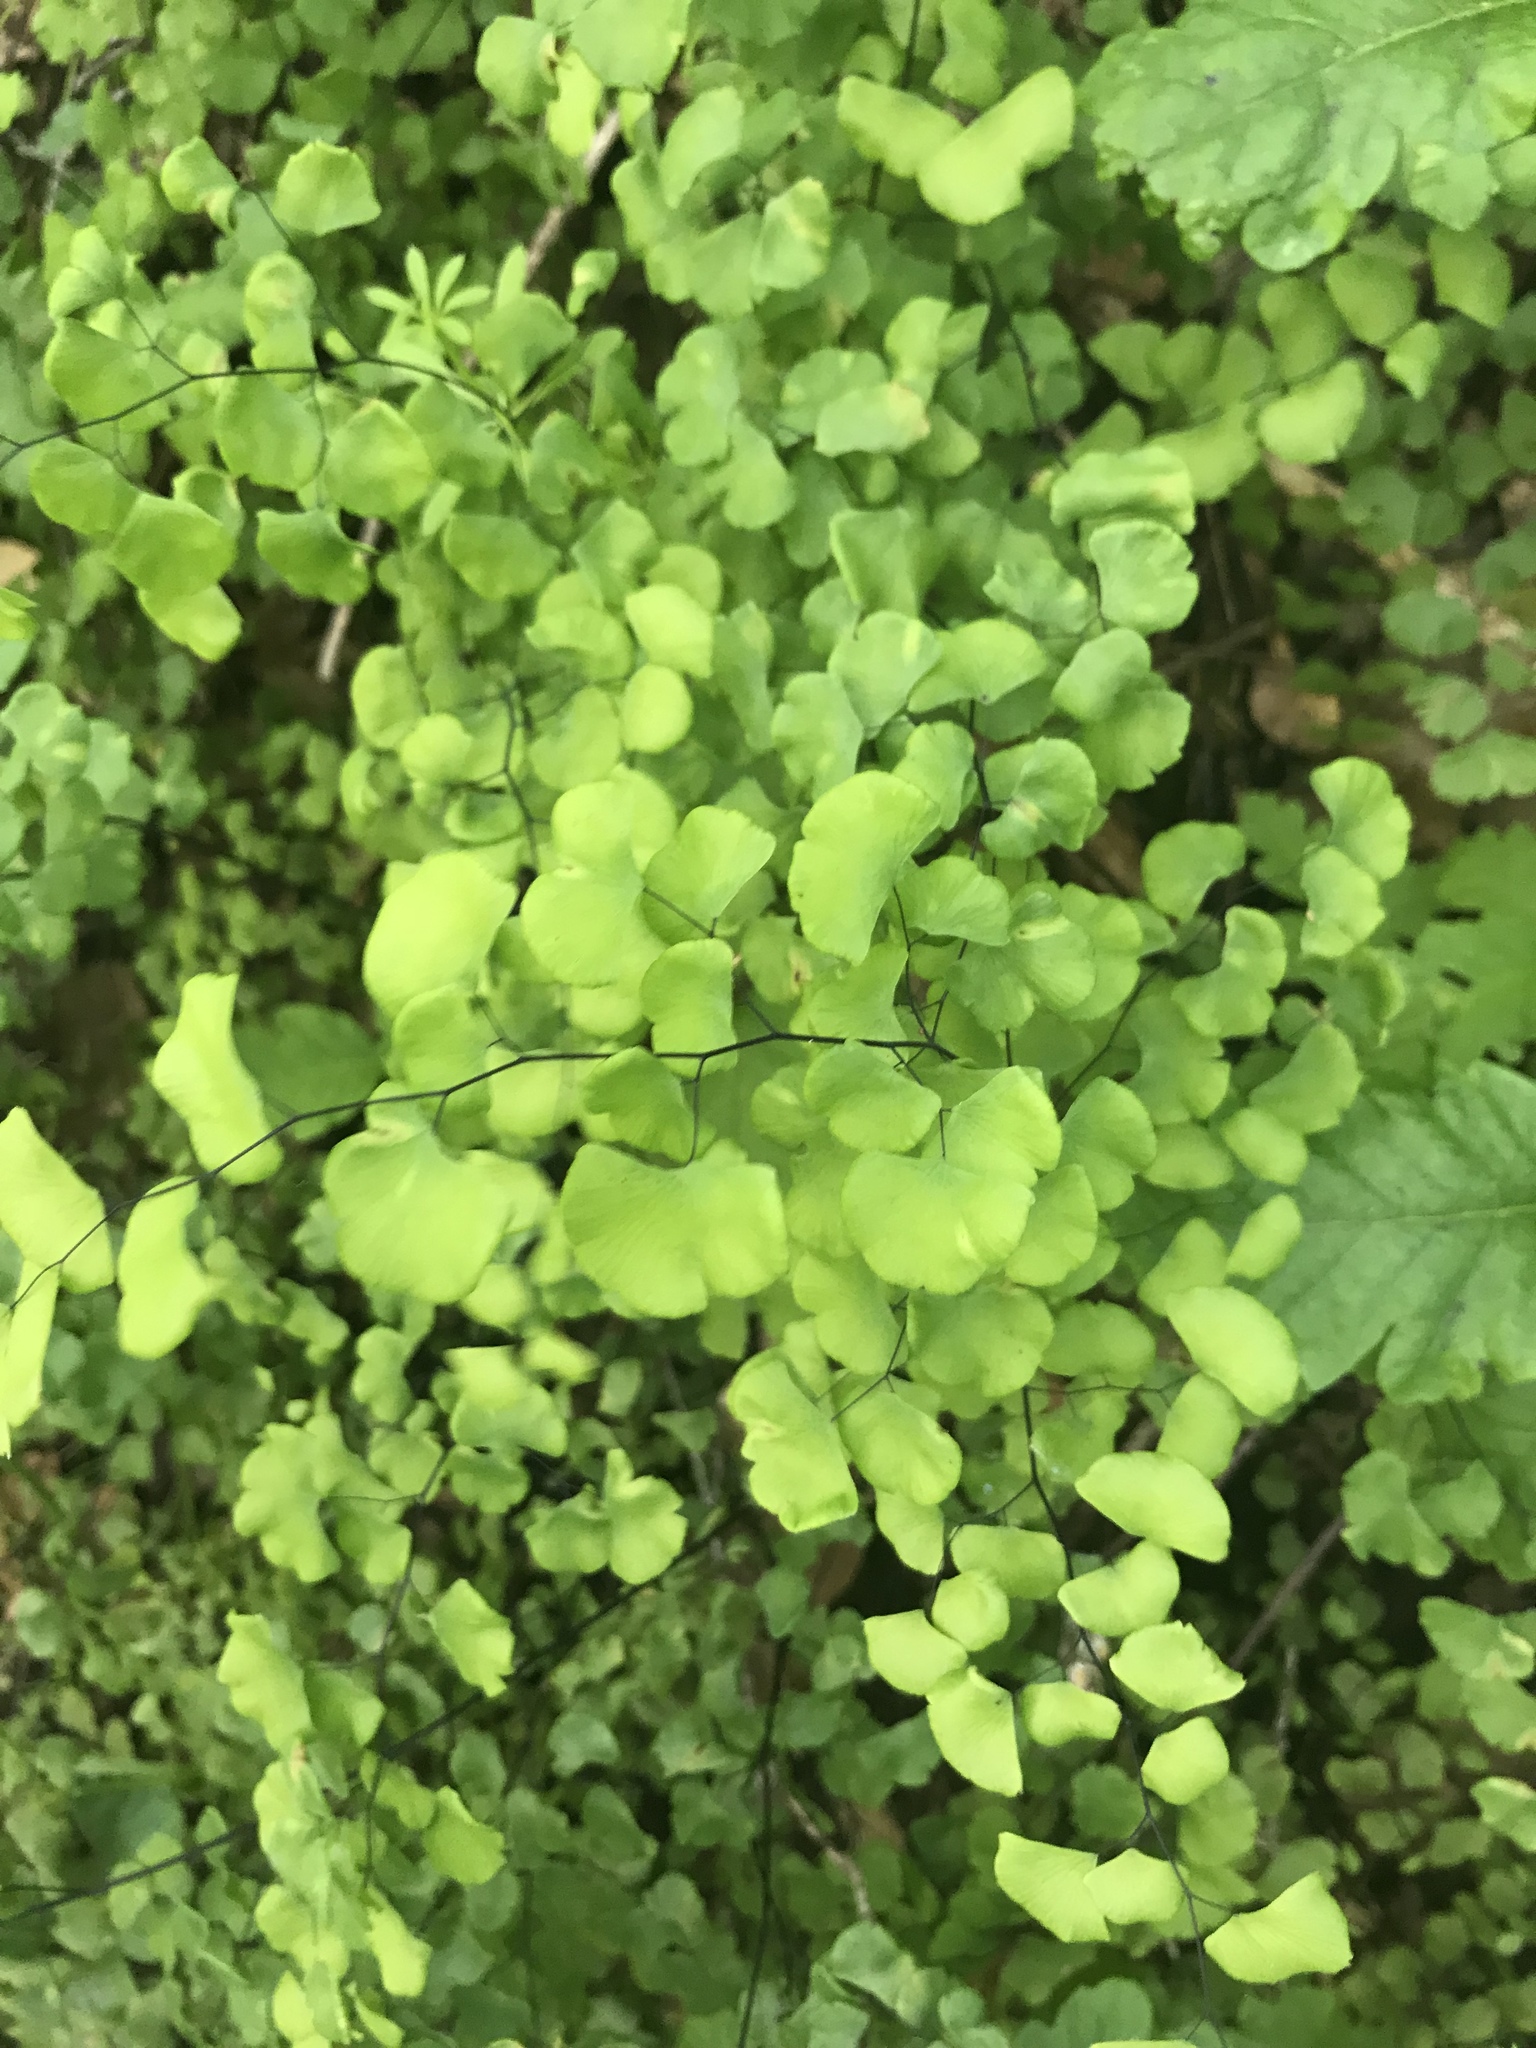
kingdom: Plantae
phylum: Tracheophyta
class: Polypodiopsida
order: Polypodiales
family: Pteridaceae
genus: Adiantum
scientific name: Adiantum jordanii
